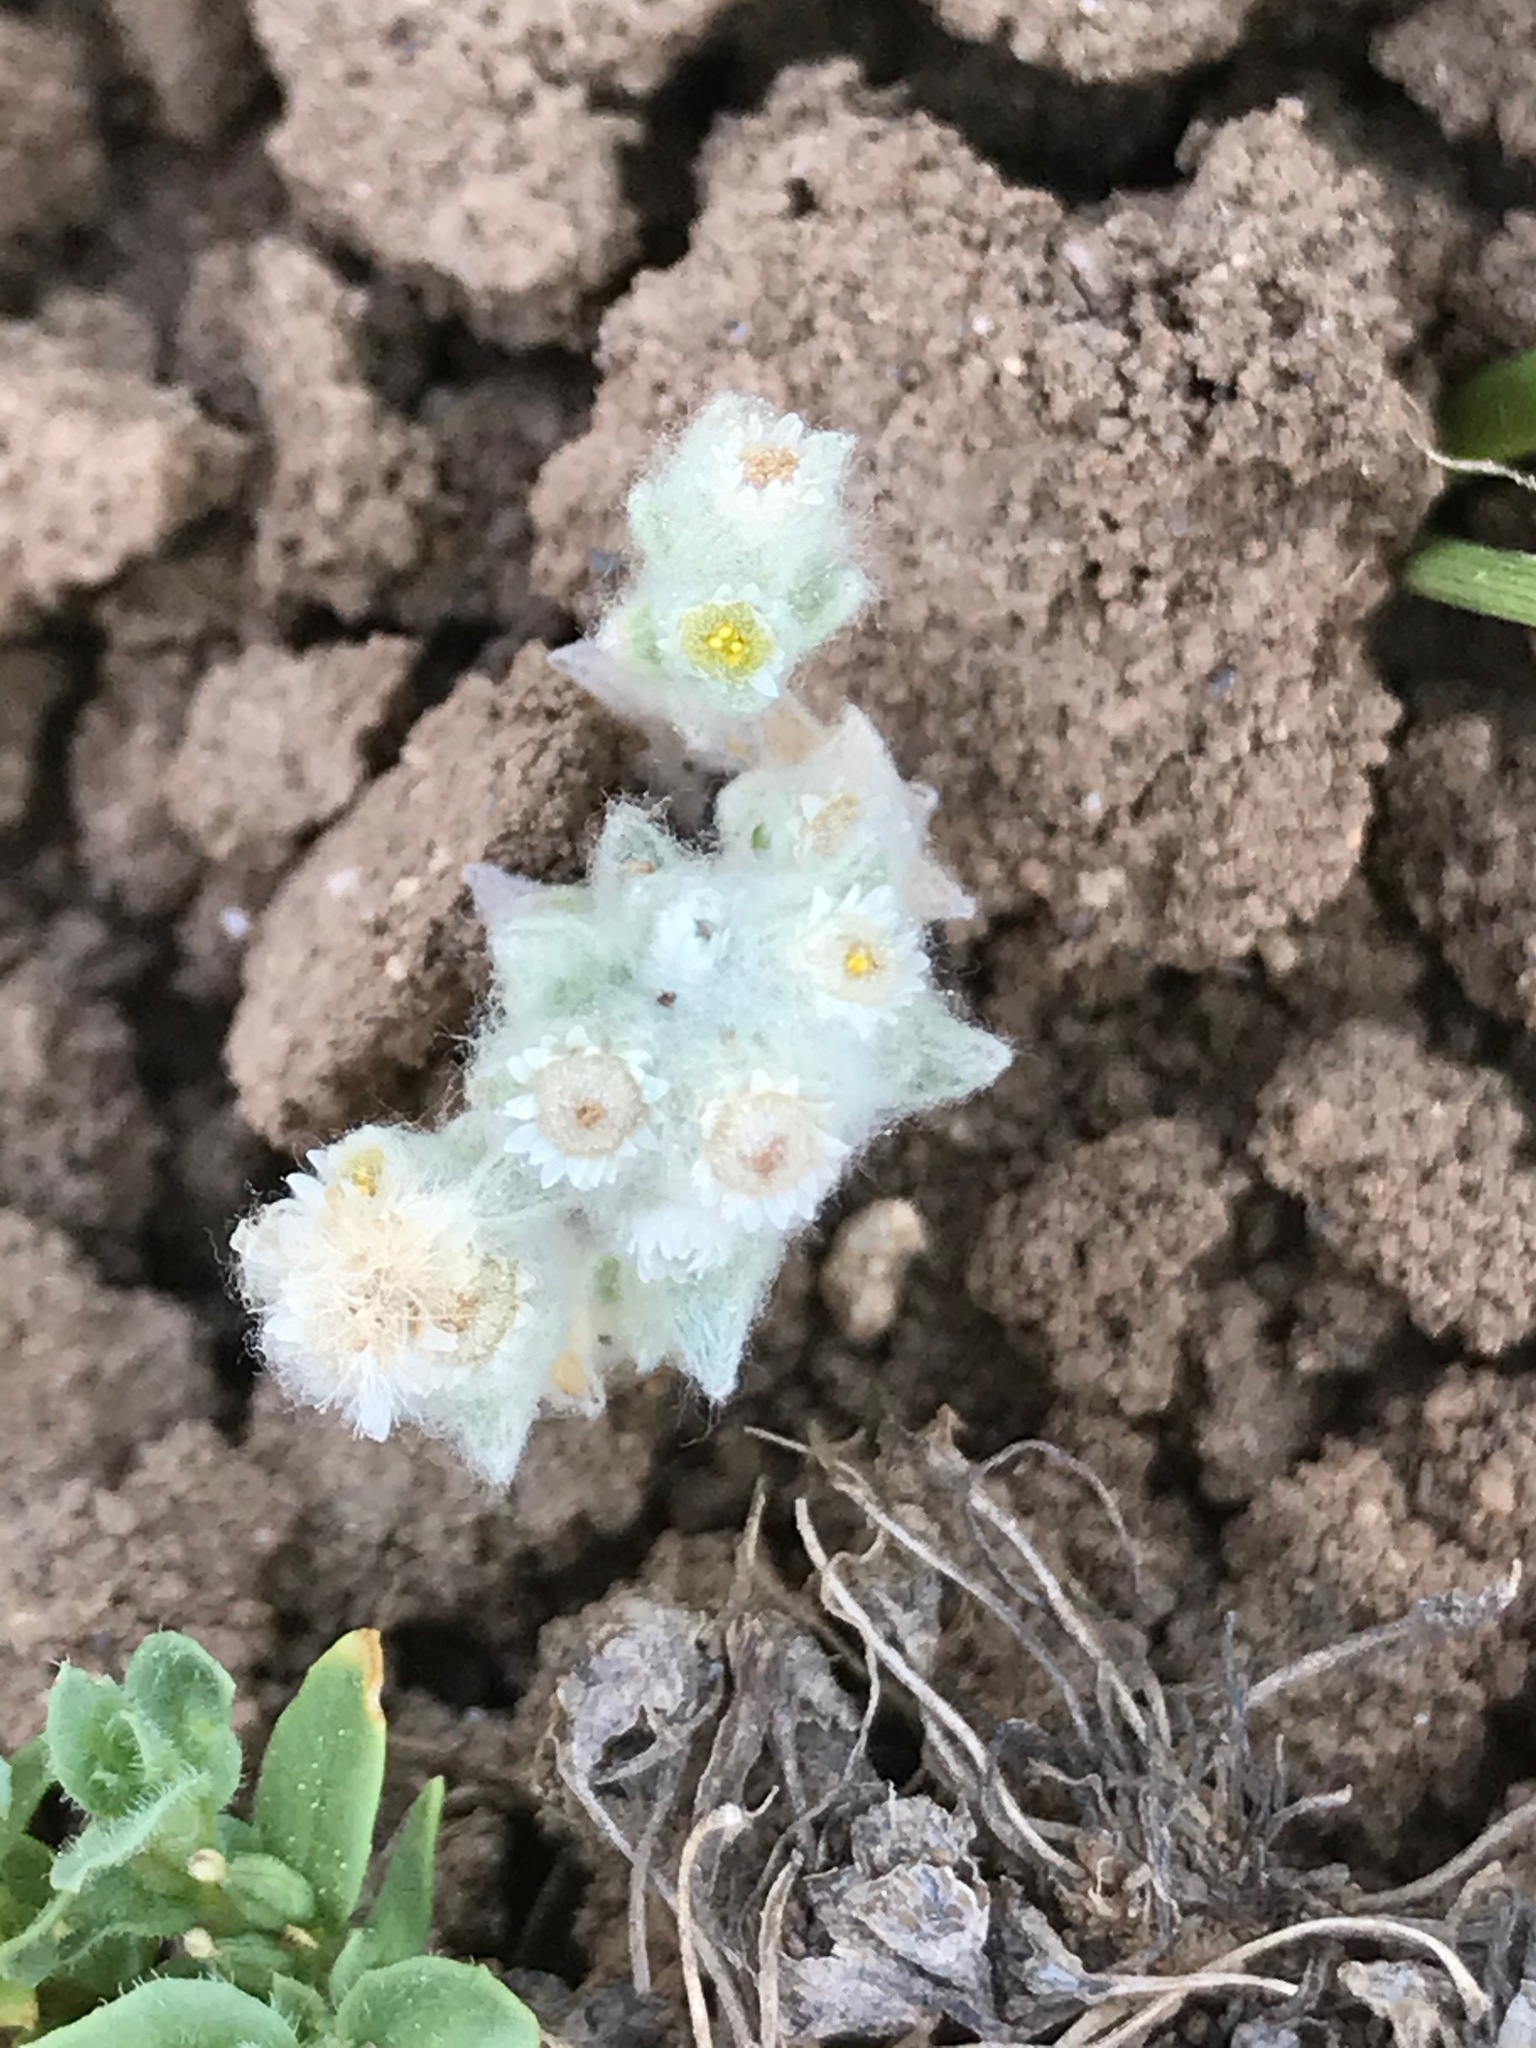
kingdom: Plantae
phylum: Tracheophyta
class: Magnoliopsida
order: Asterales
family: Asteraceae
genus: Gnaphalium
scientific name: Gnaphalium palustre
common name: Western marsh cudweed
